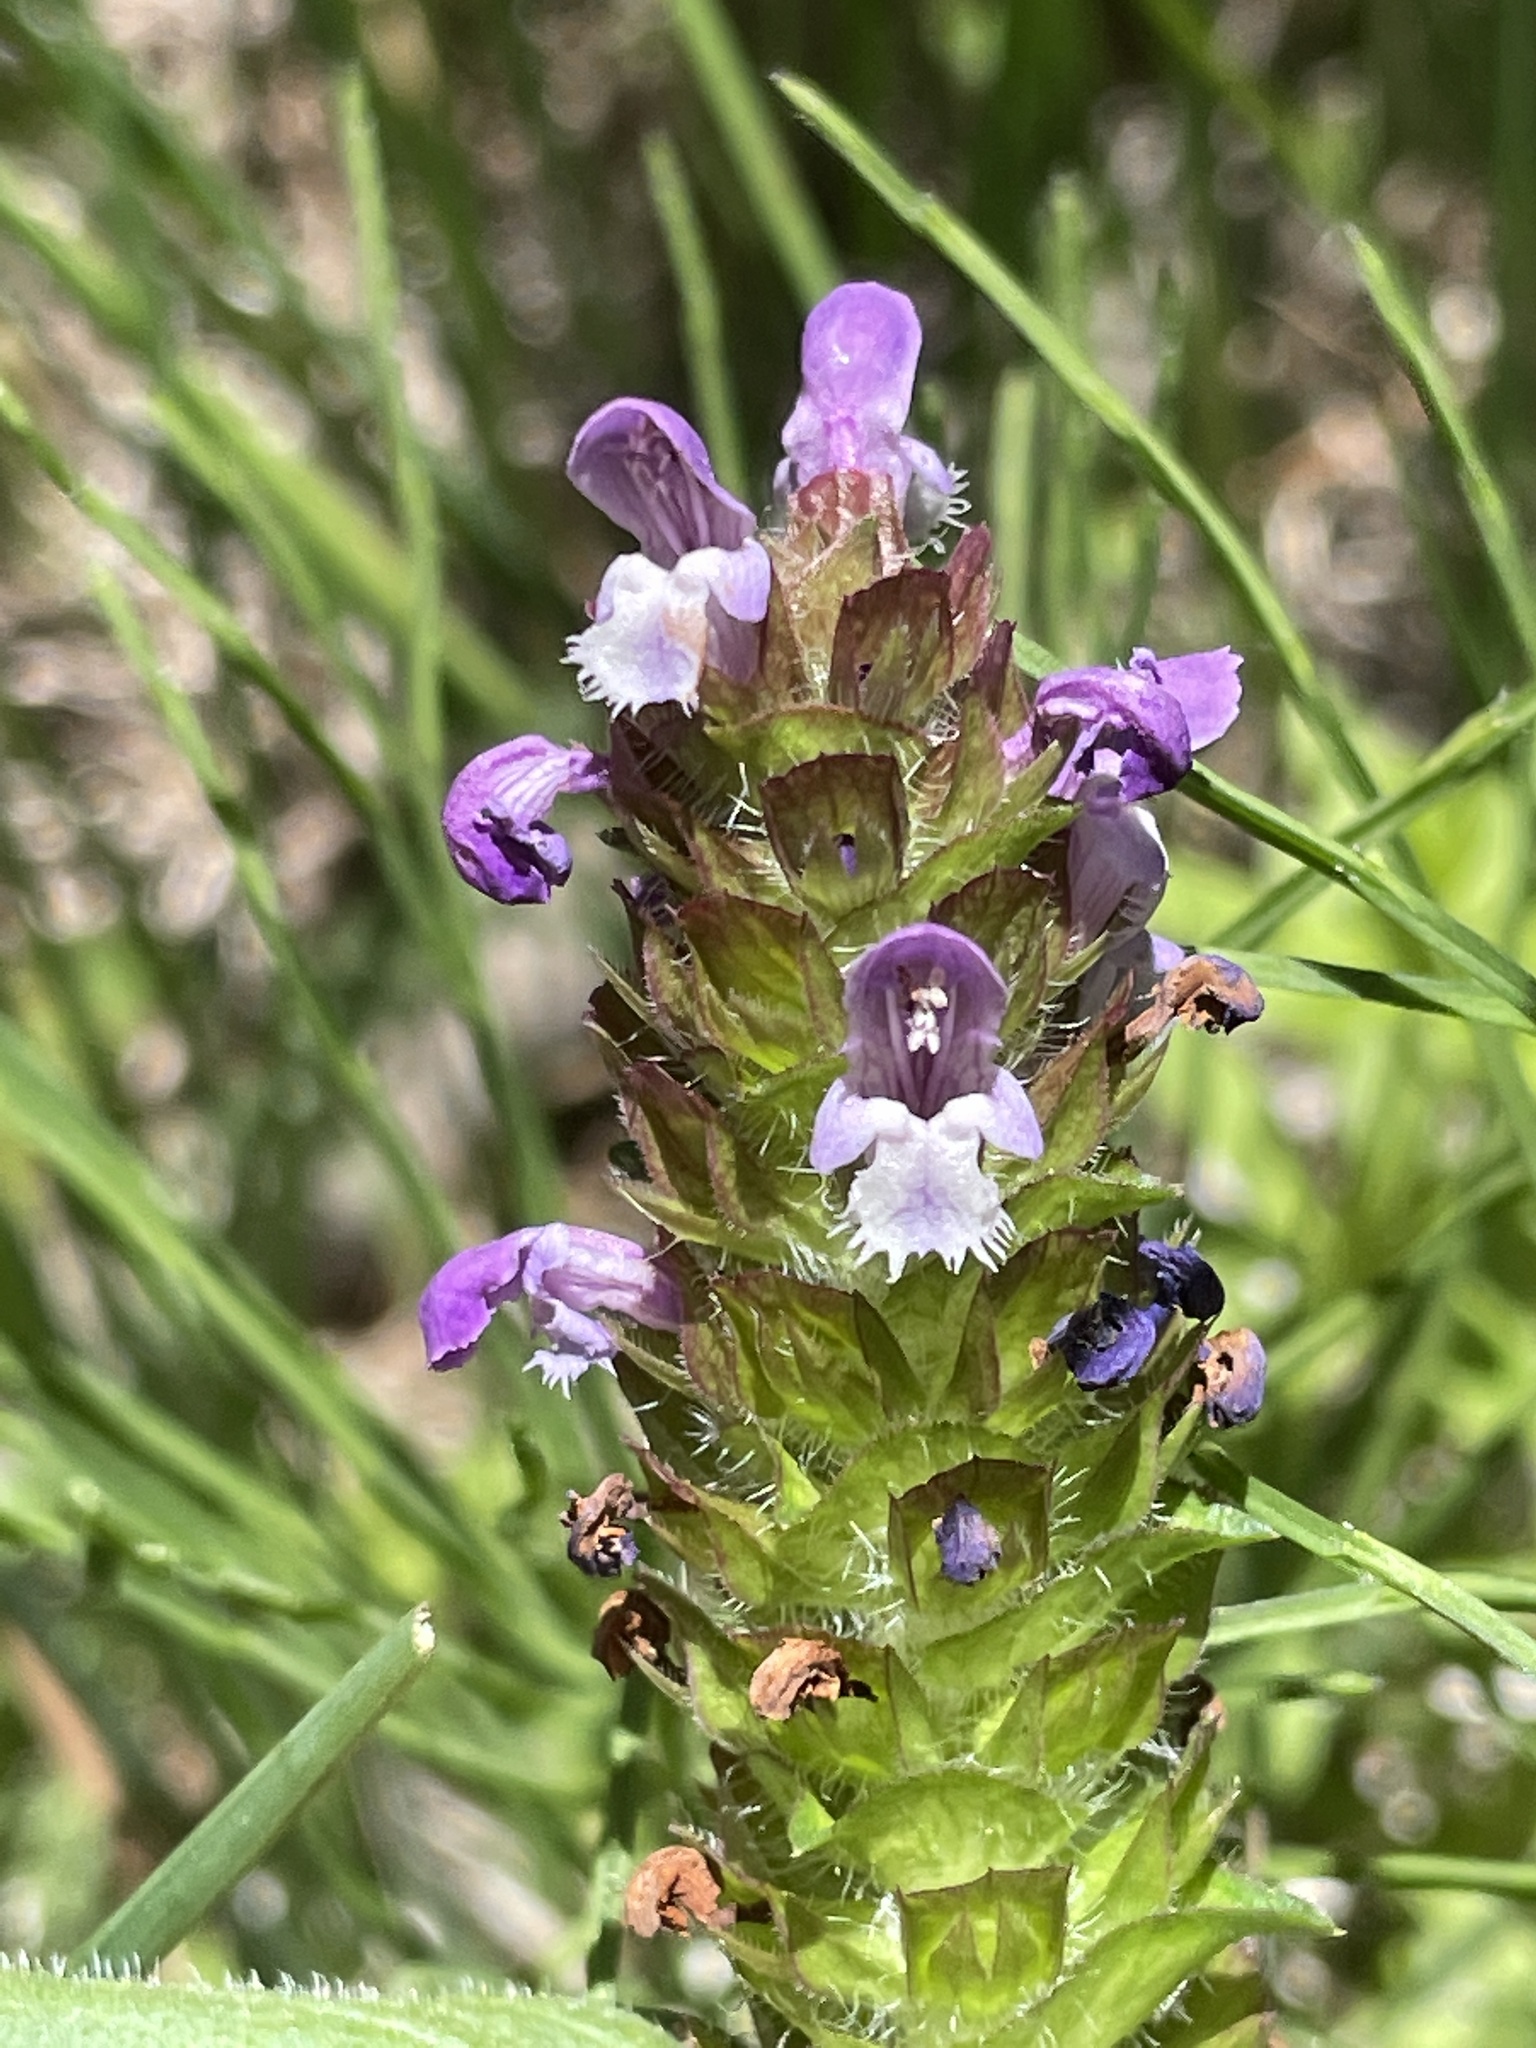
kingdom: Plantae
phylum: Tracheophyta
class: Magnoliopsida
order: Lamiales
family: Lamiaceae
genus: Prunella
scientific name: Prunella vulgaris
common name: Heal-all
